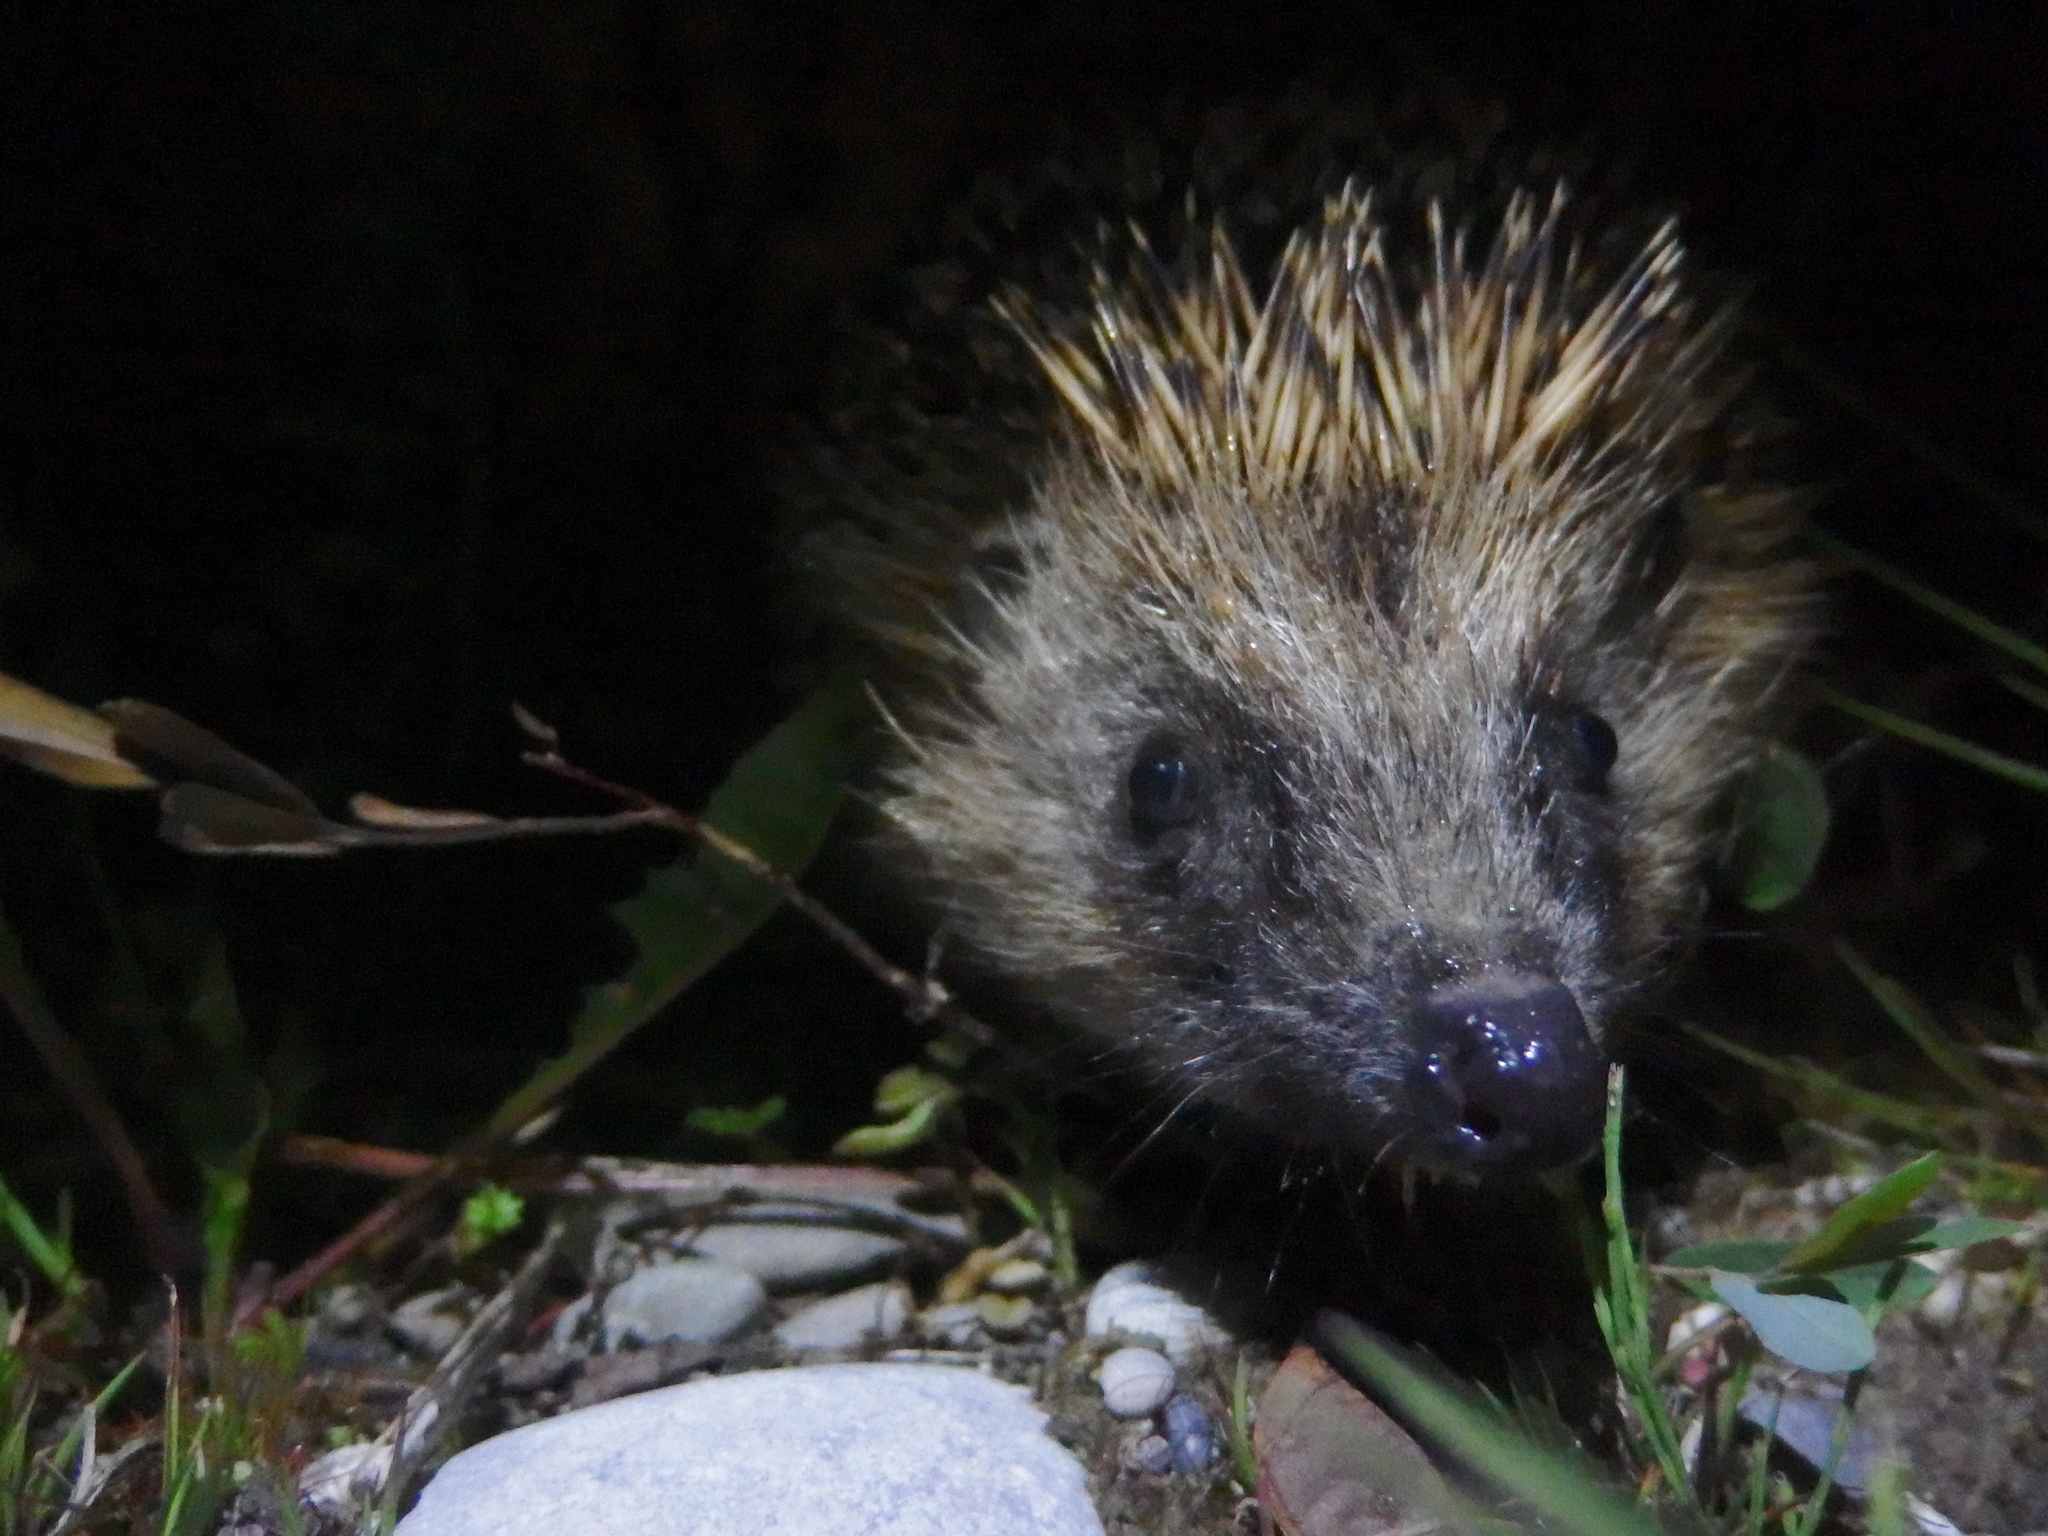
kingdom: Animalia
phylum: Chordata
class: Mammalia
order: Erinaceomorpha
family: Erinaceidae
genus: Erinaceus
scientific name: Erinaceus europaeus
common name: West european hedgehog
